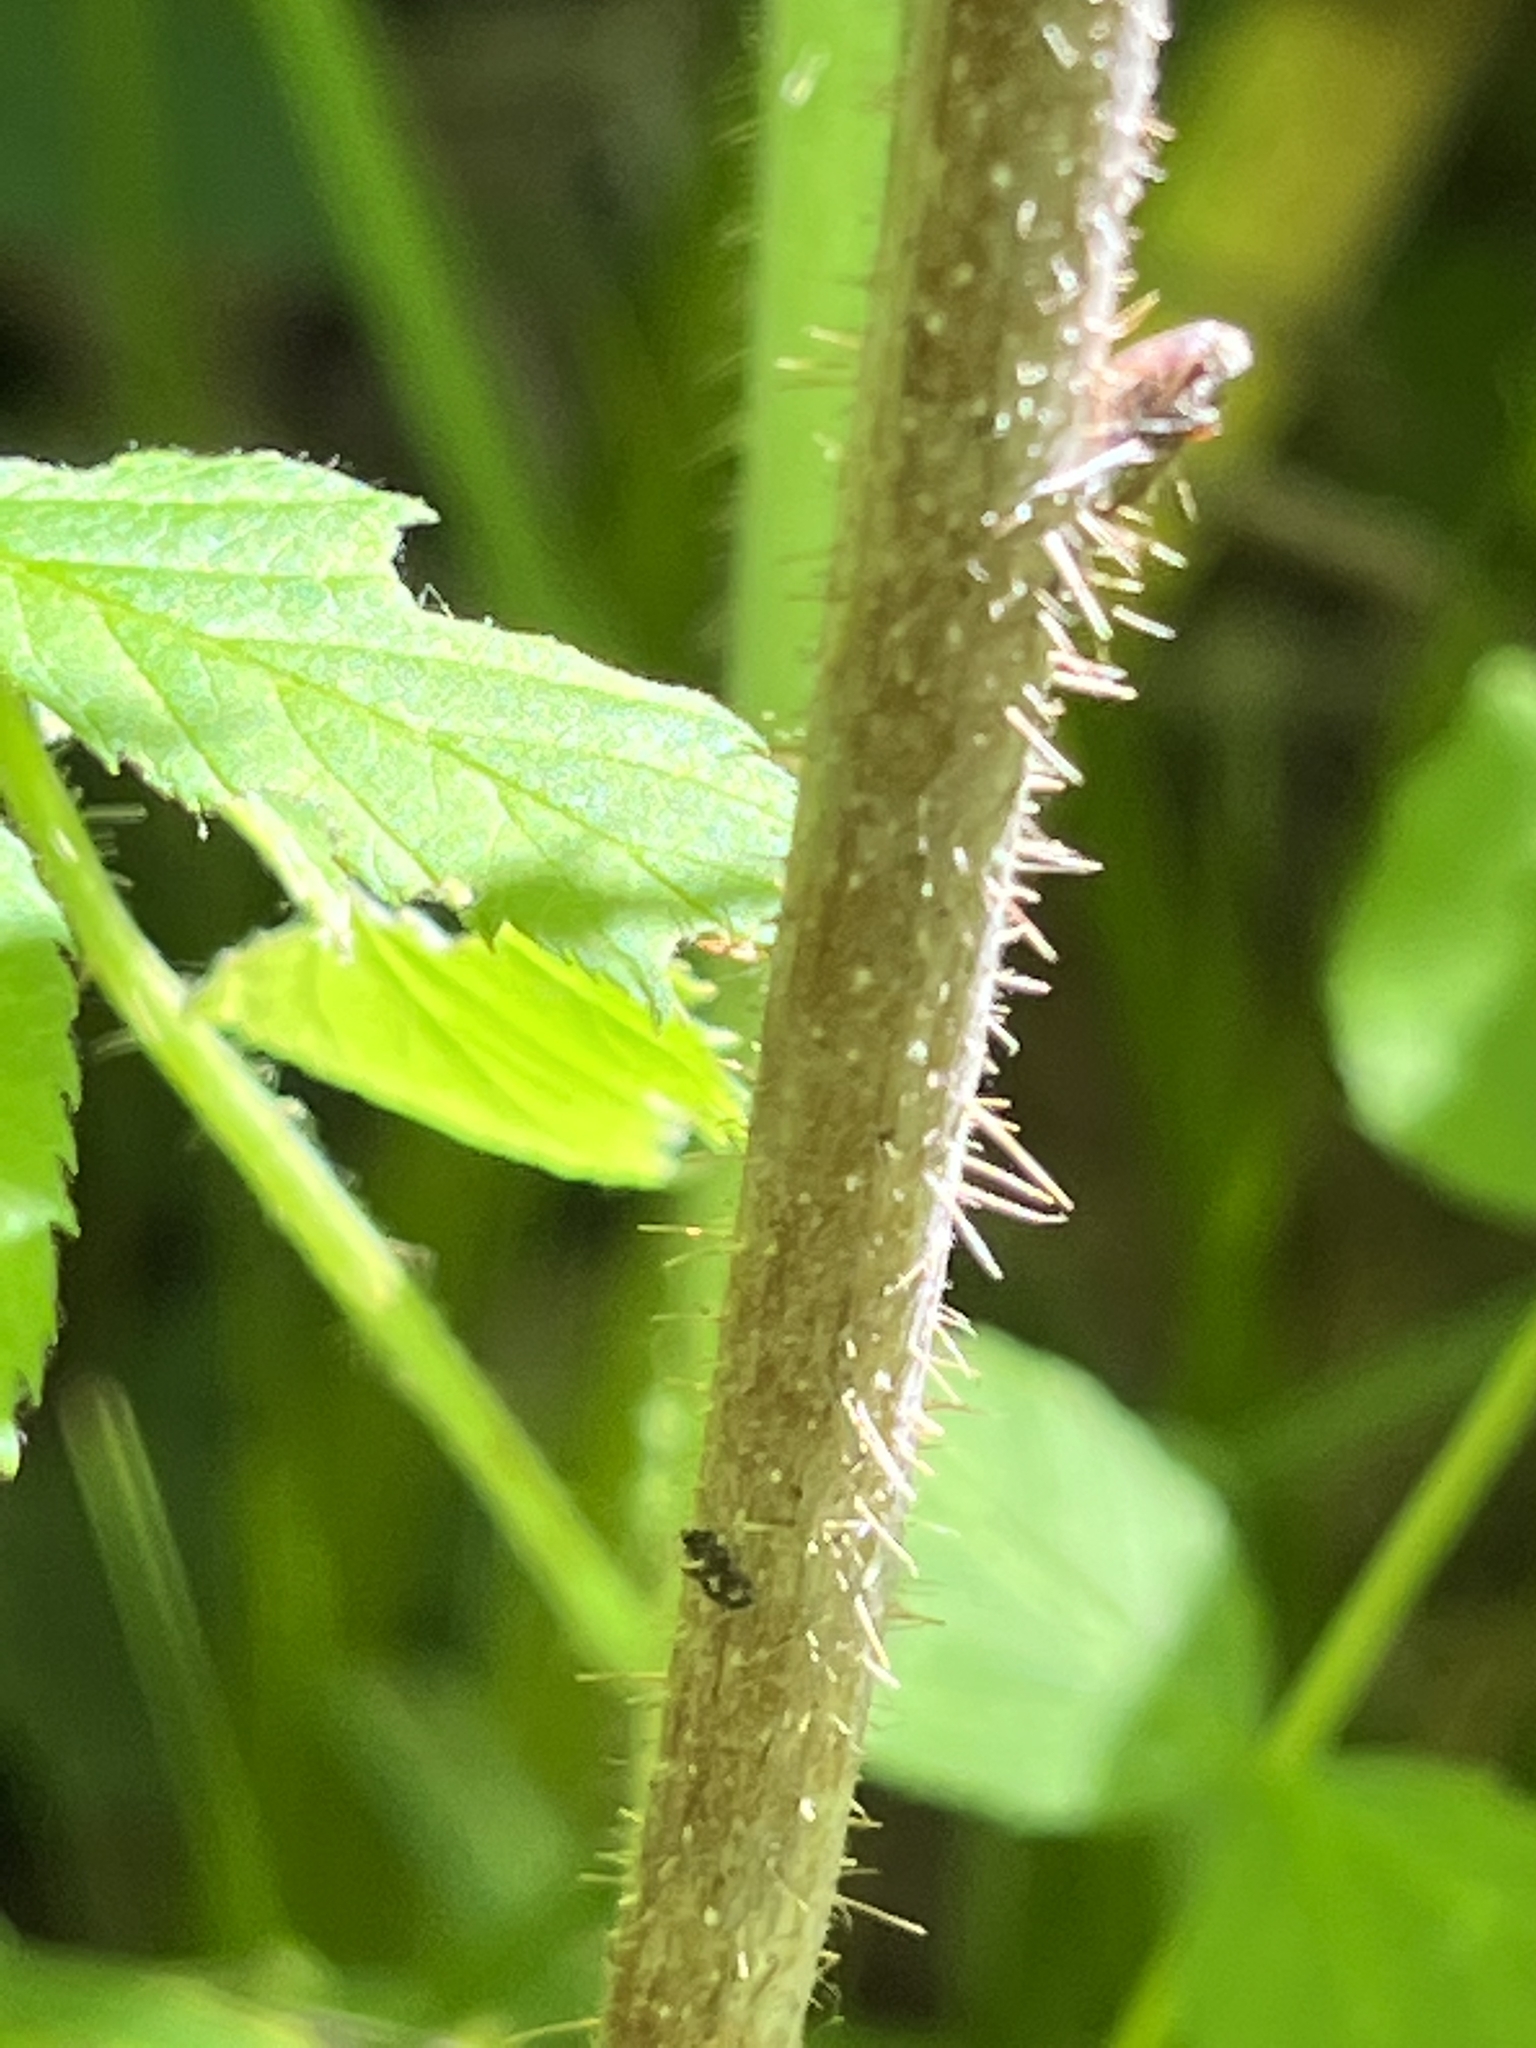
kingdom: Plantae
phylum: Tracheophyta
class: Magnoliopsida
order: Rosales
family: Rosaceae
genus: Rubus
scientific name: Rubus idaeus
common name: Raspberry
